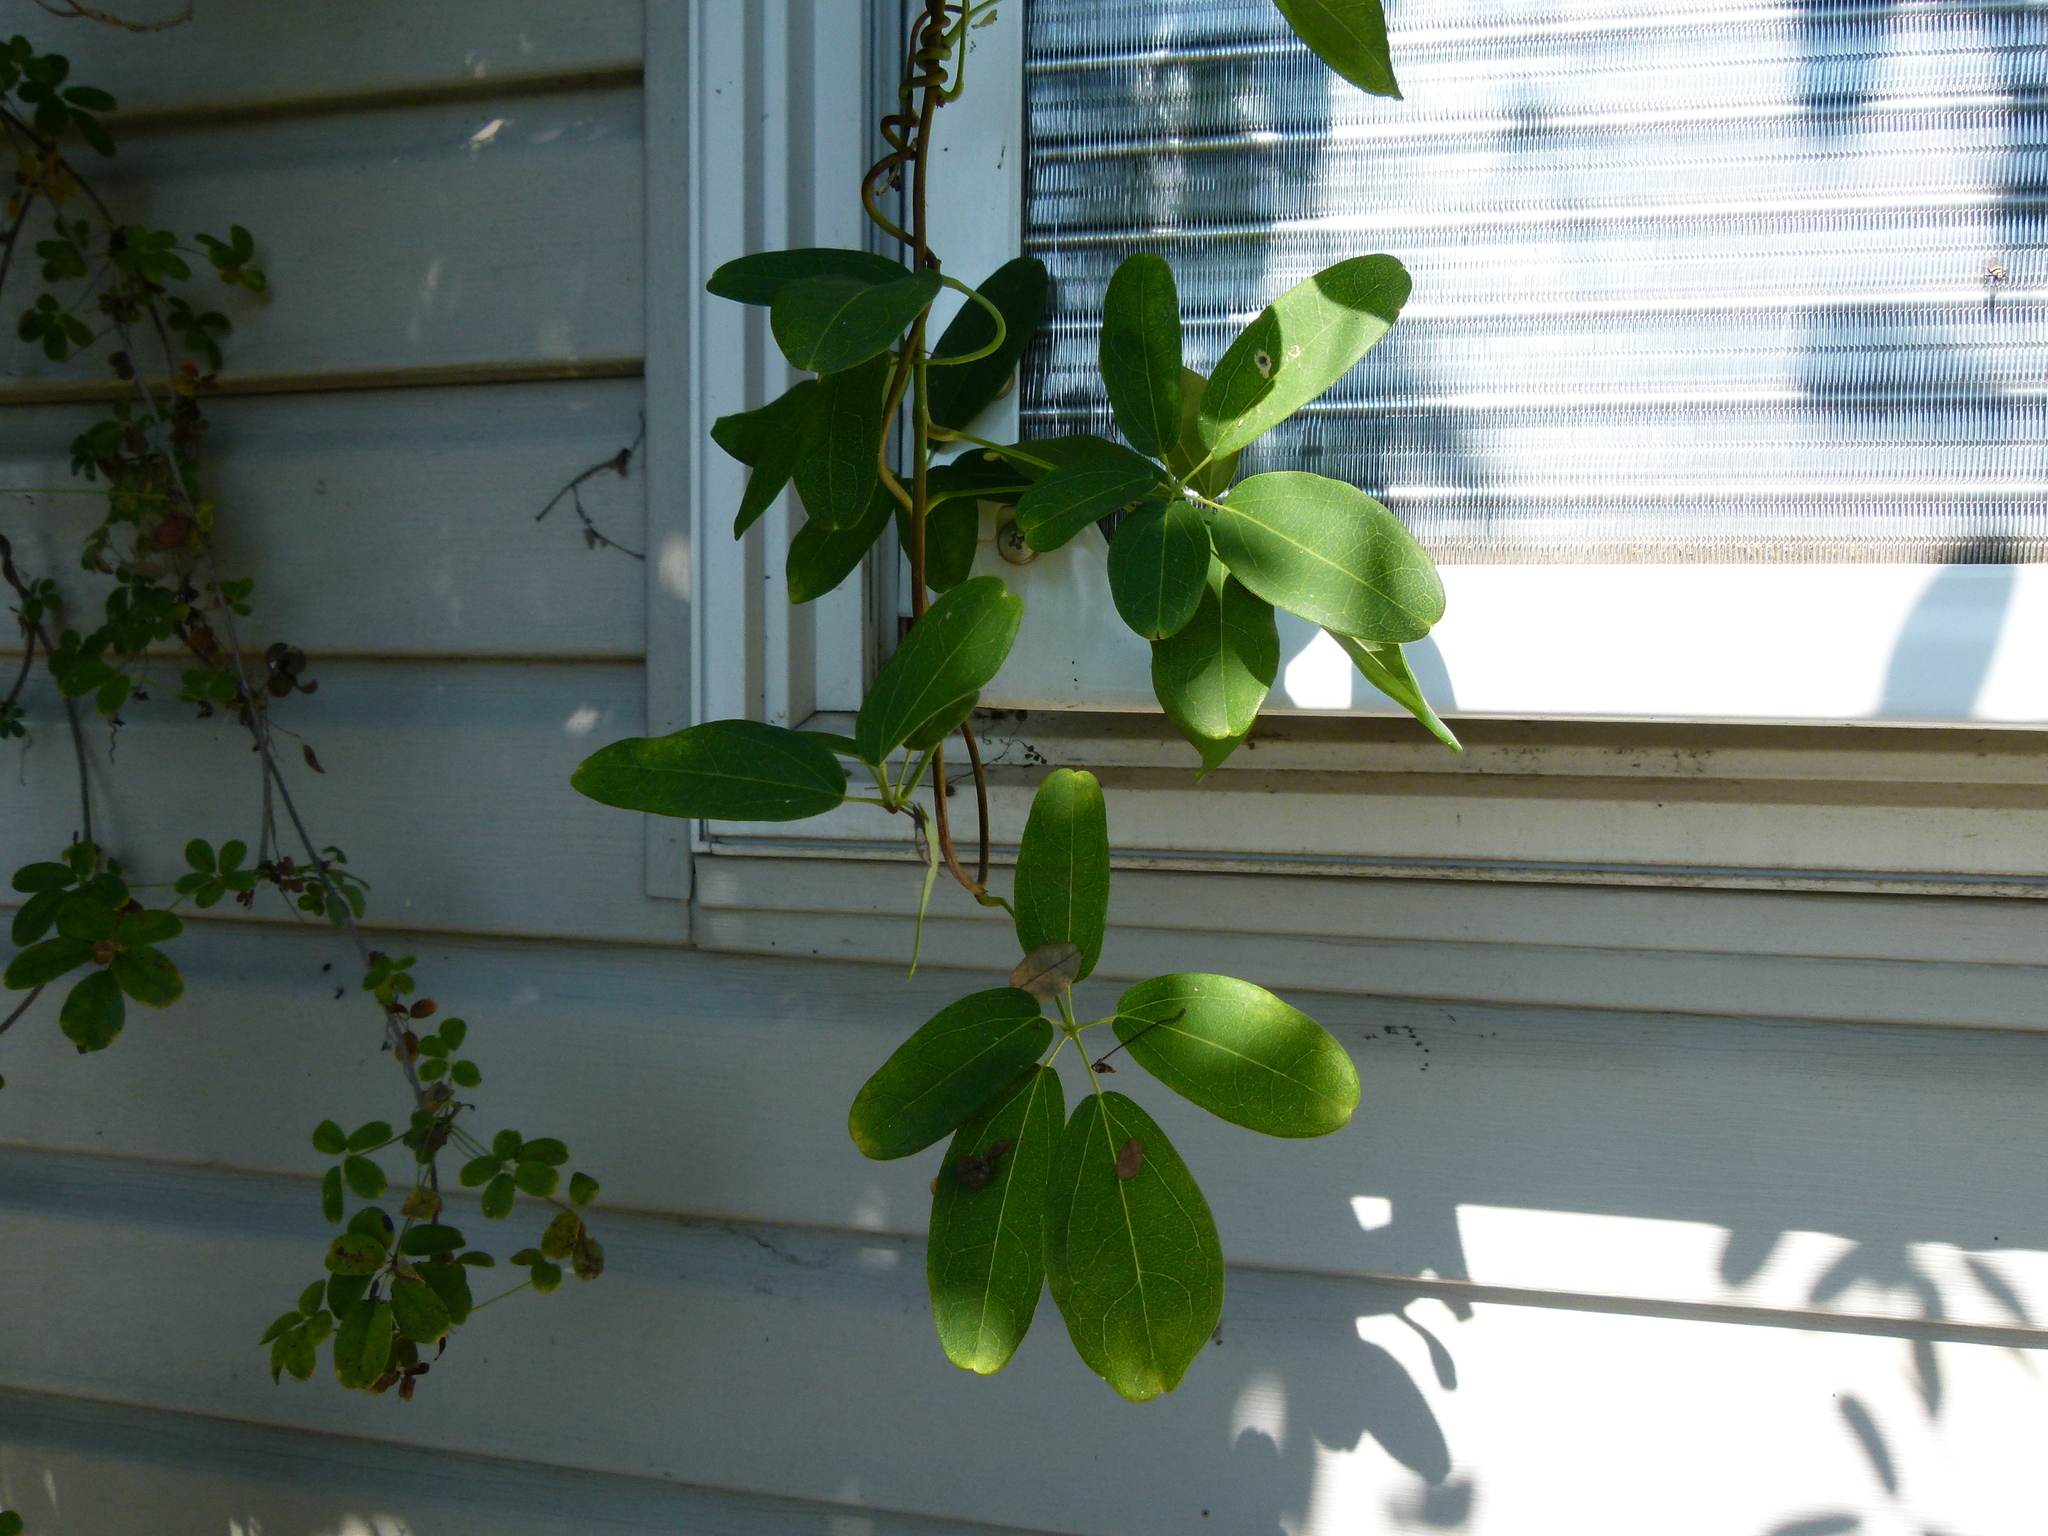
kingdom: Plantae
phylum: Tracheophyta
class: Magnoliopsida
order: Ranunculales
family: Lardizabalaceae
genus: Akebia
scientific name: Akebia quinata
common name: Five-leaf akebia
